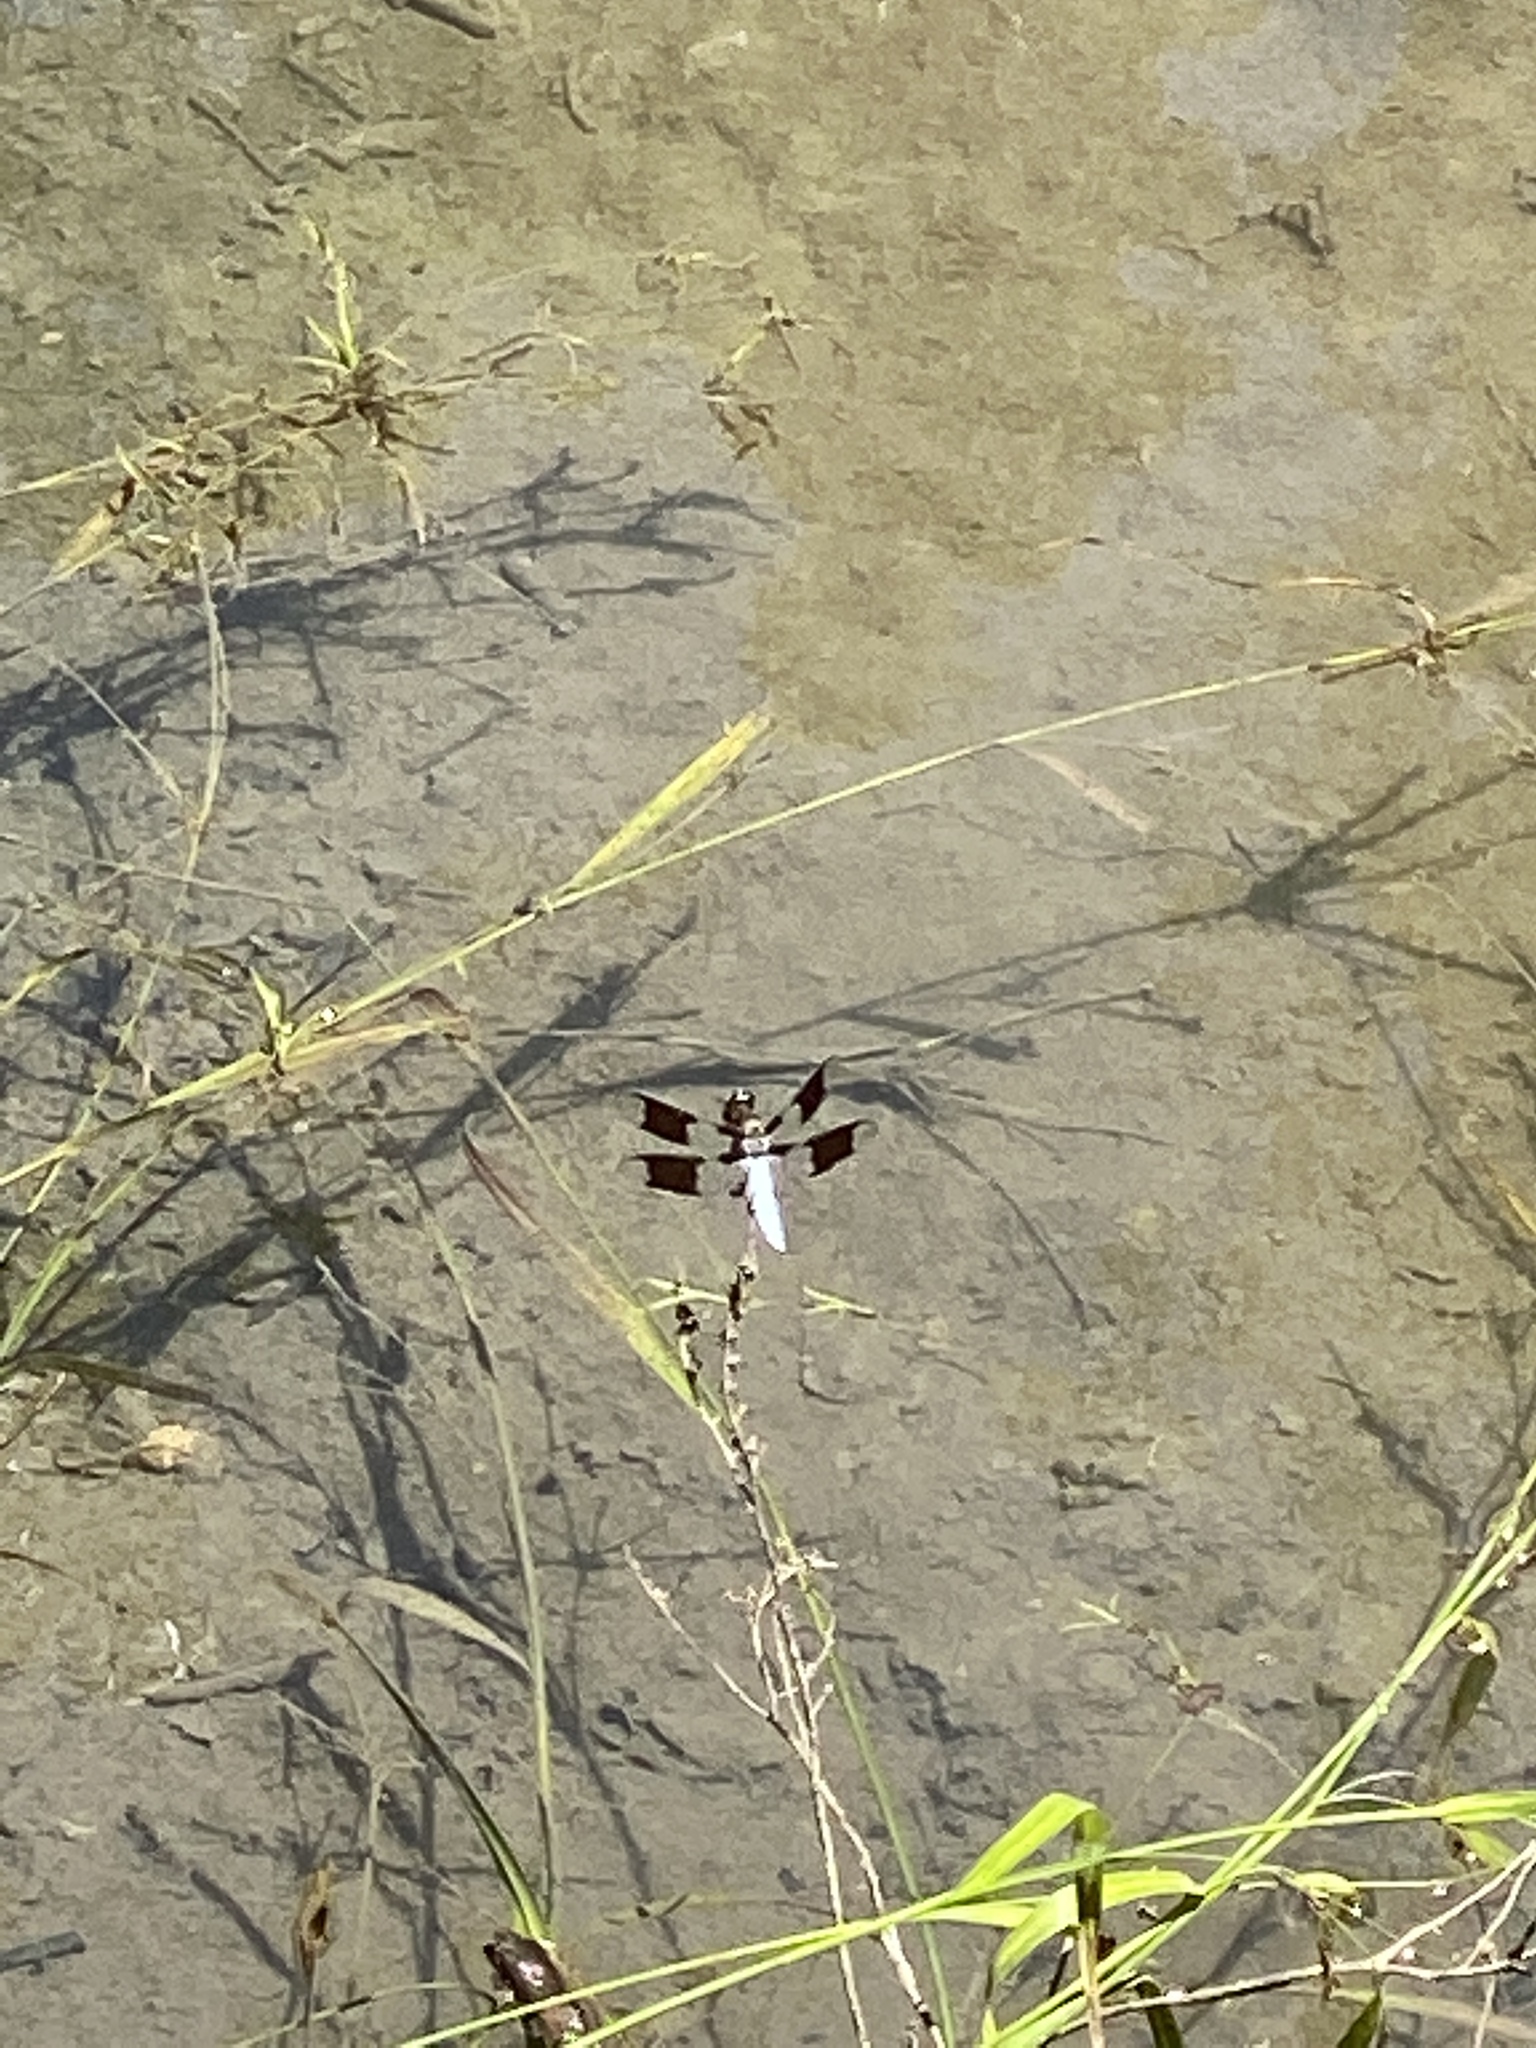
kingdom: Animalia
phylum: Arthropoda
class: Insecta
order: Odonata
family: Libellulidae
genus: Plathemis
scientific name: Plathemis lydia
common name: Common whitetail
